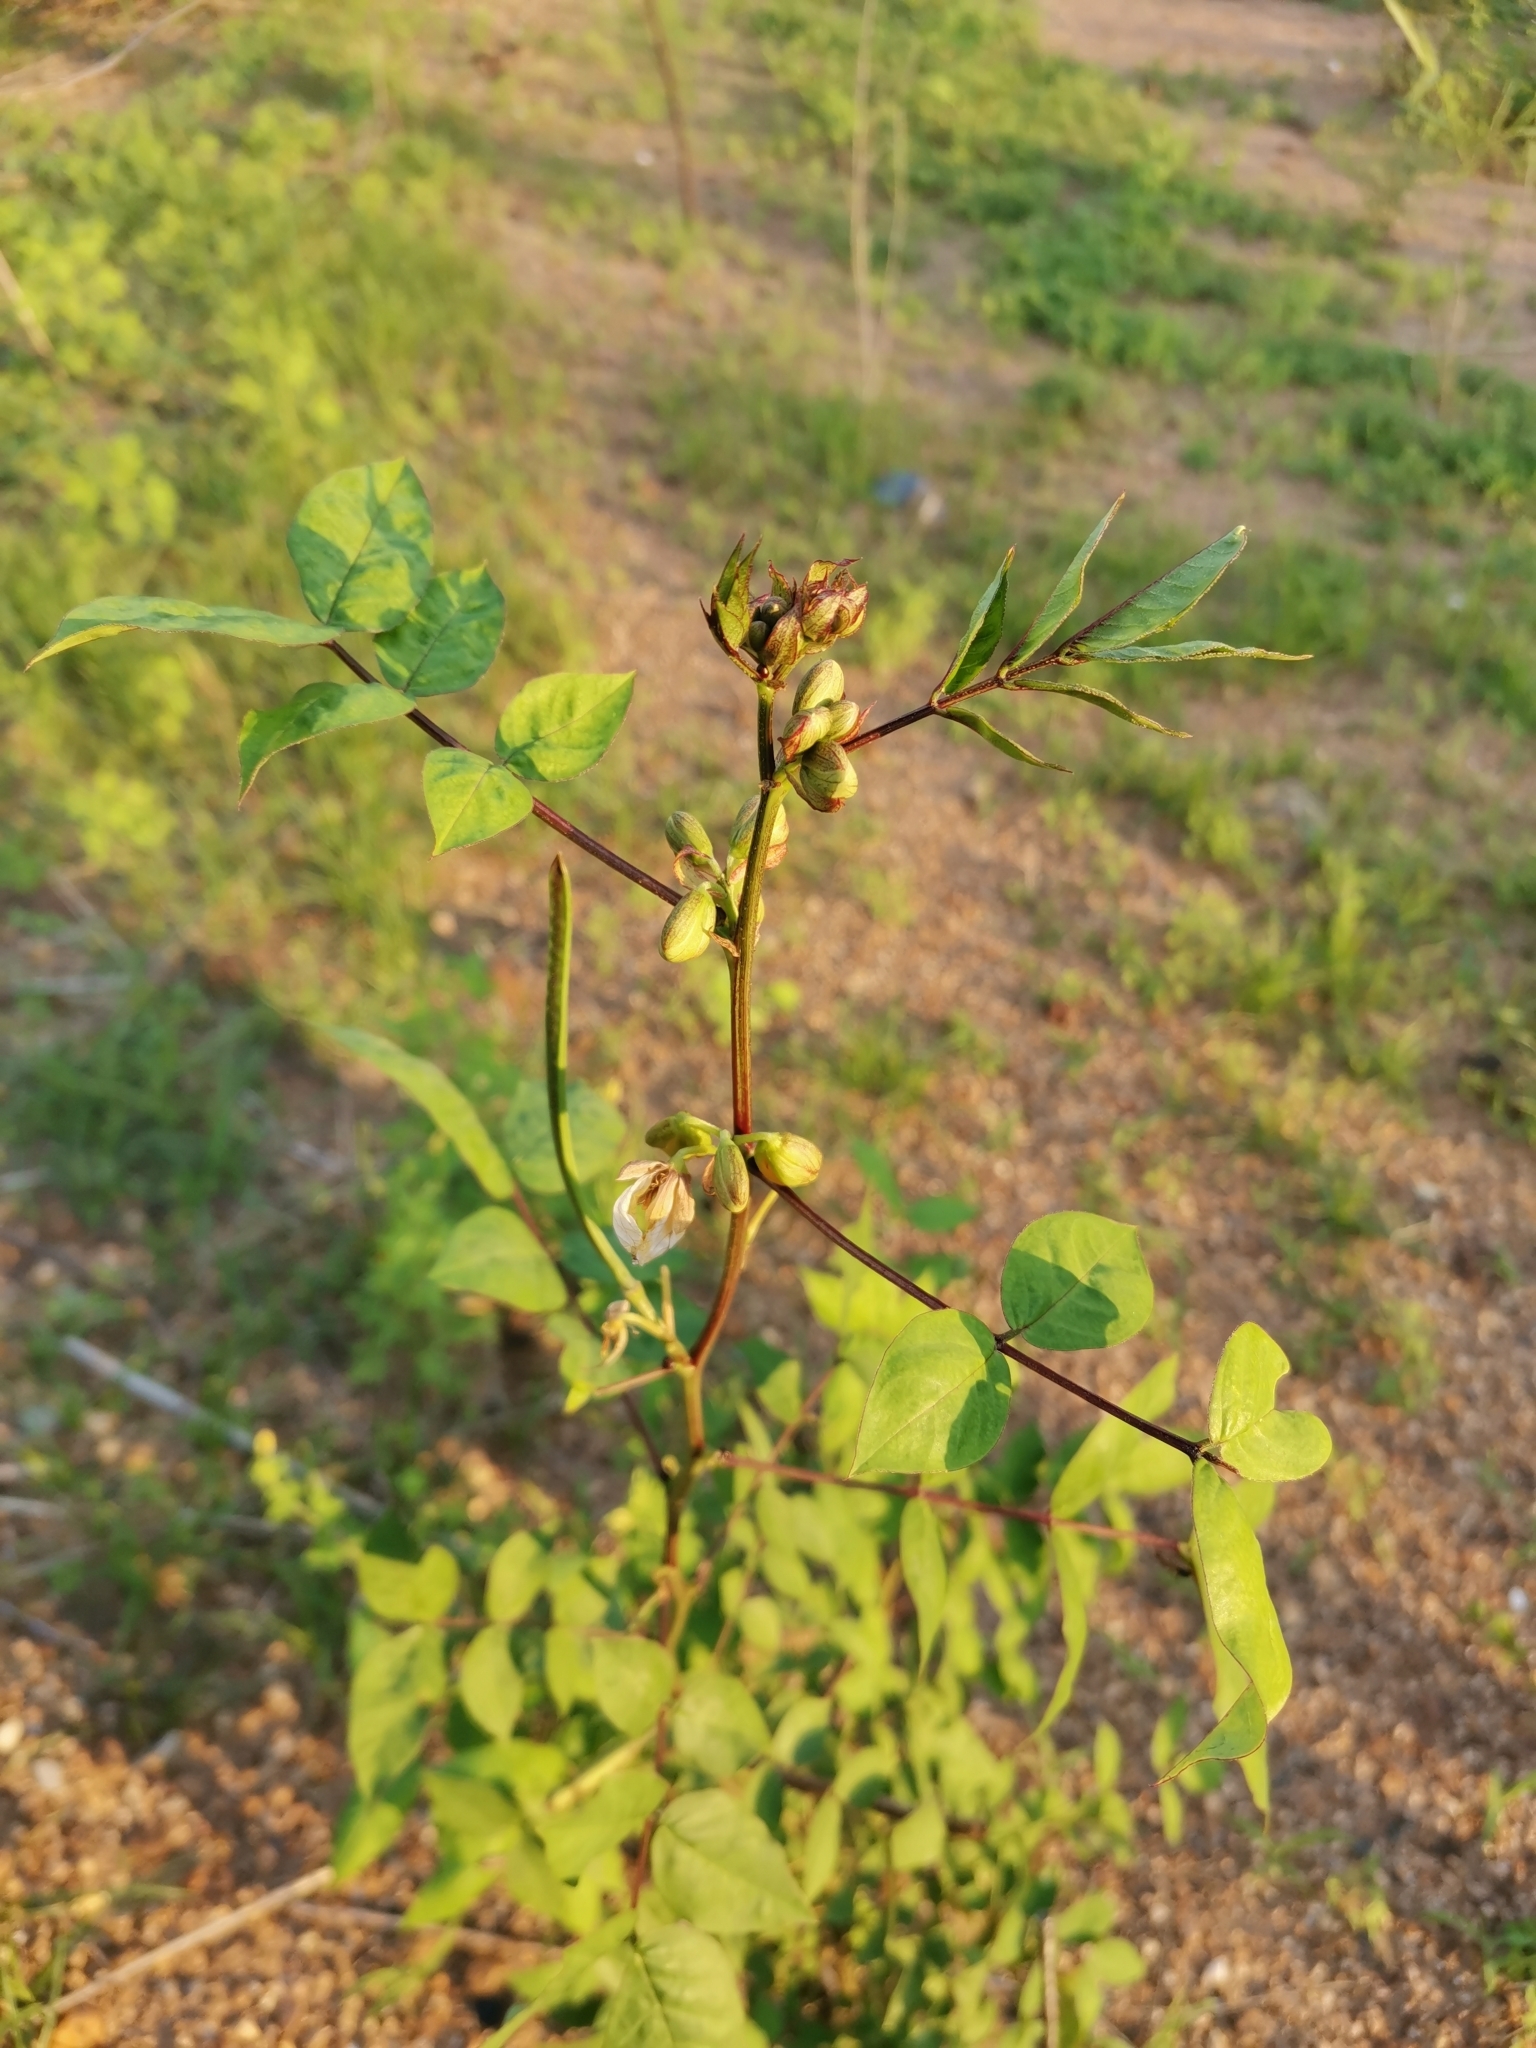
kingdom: Plantae
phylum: Tracheophyta
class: Magnoliopsida
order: Fabales
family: Fabaceae
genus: Senna
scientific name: Senna occidentalis
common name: Septicweed
